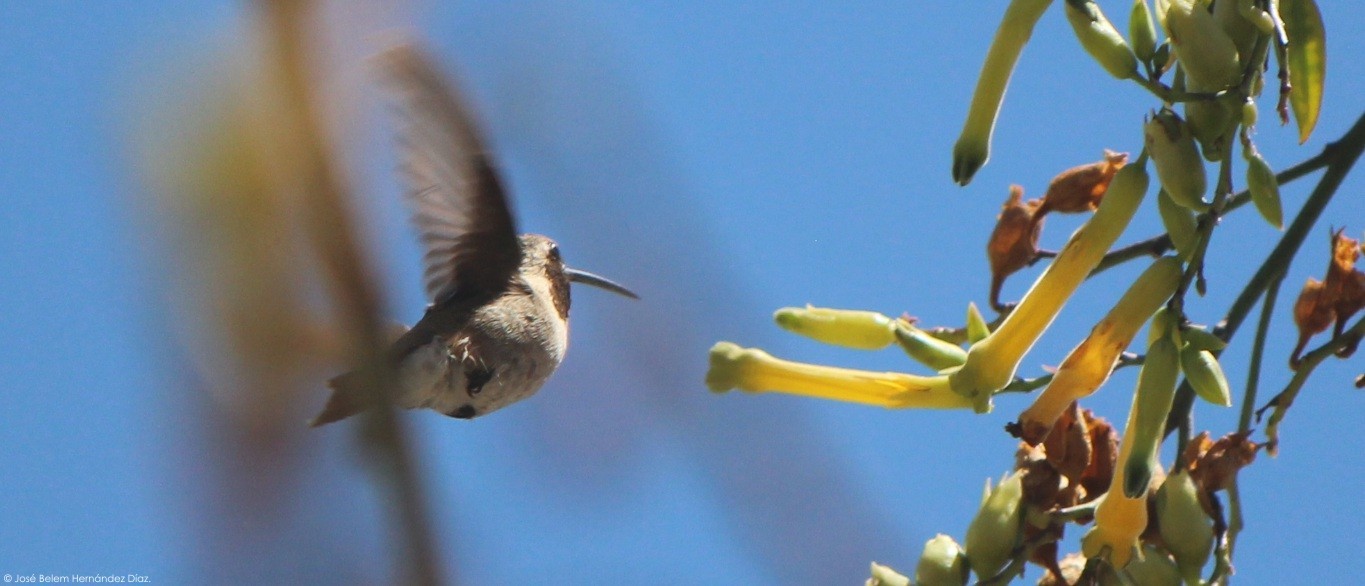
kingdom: Animalia
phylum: Chordata
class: Aves
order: Apodiformes
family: Trochilidae
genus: Calothorax
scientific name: Calothorax lucifer
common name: Lucifer sheartail
